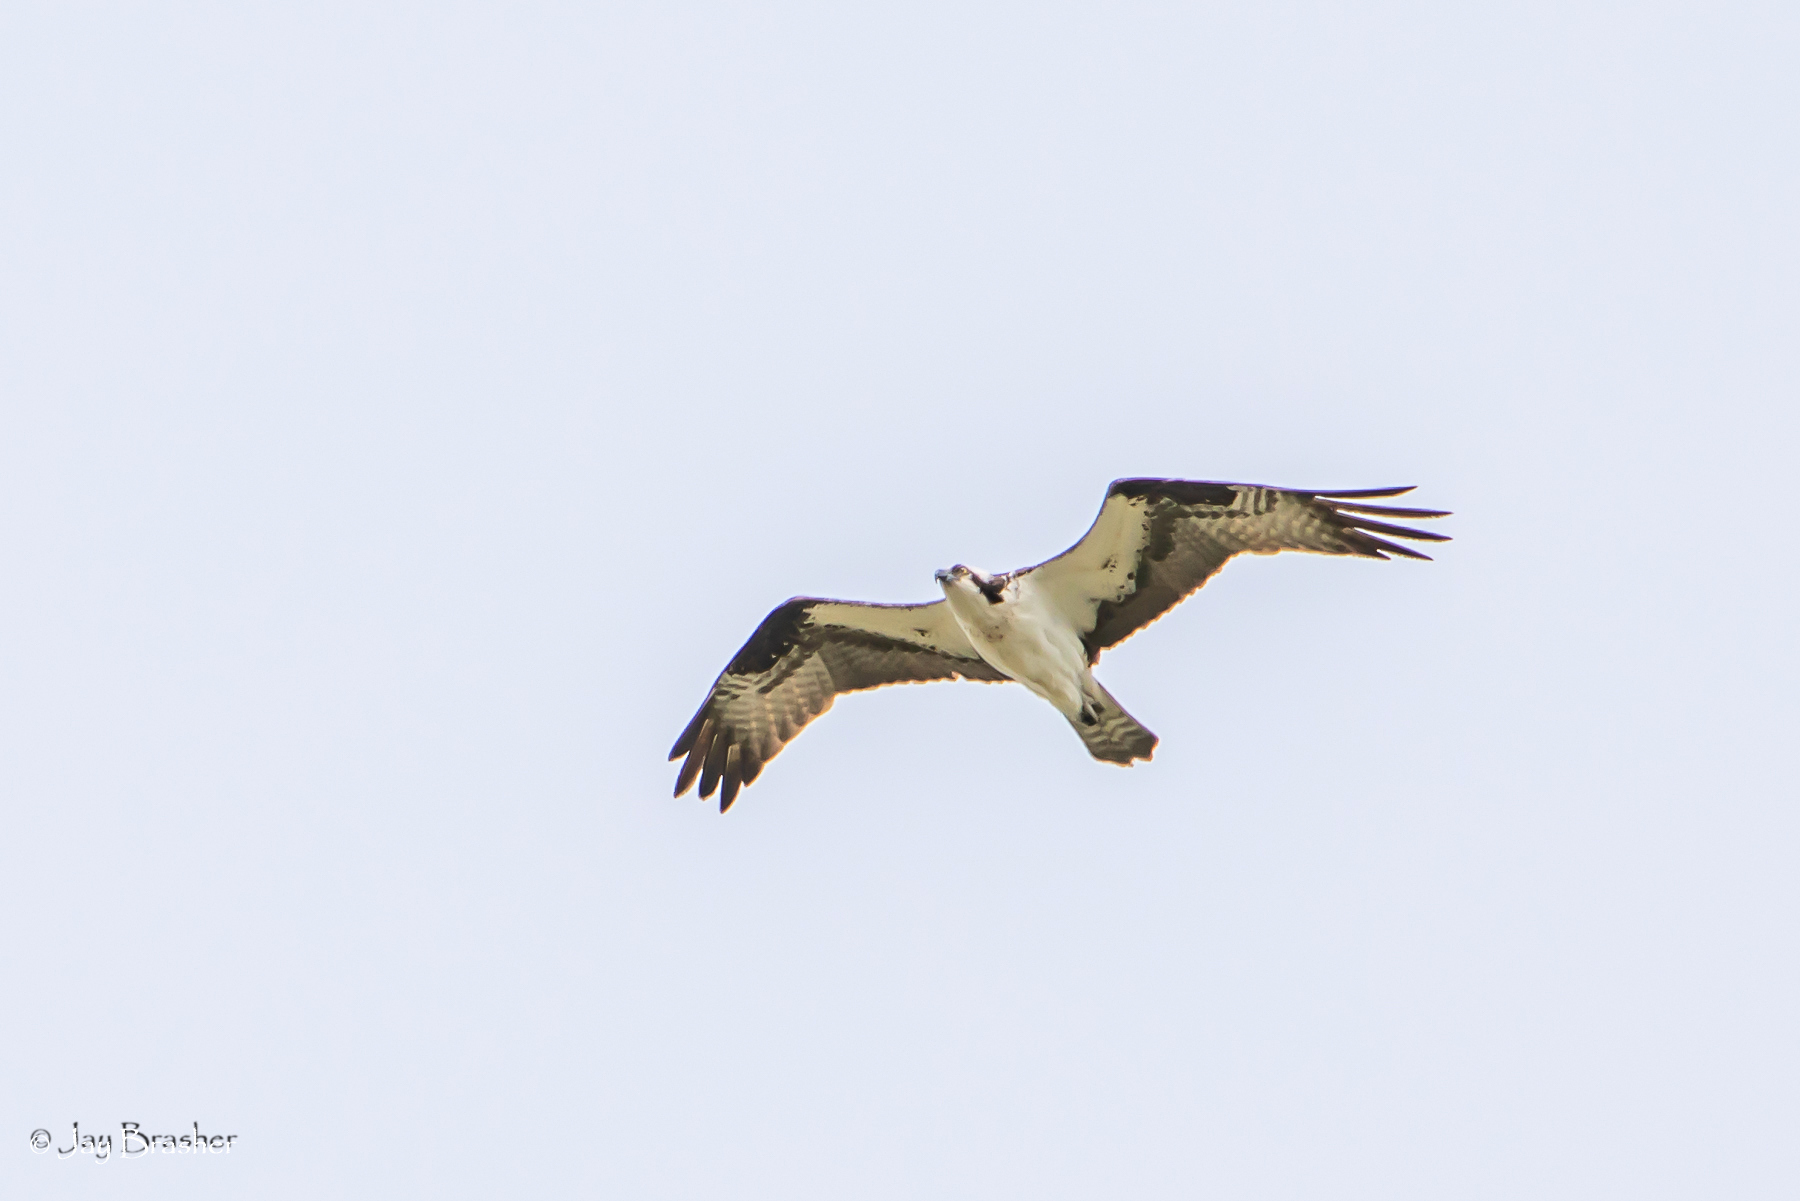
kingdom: Animalia
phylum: Chordata
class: Aves
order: Accipitriformes
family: Pandionidae
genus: Pandion
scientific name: Pandion haliaetus
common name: Osprey
